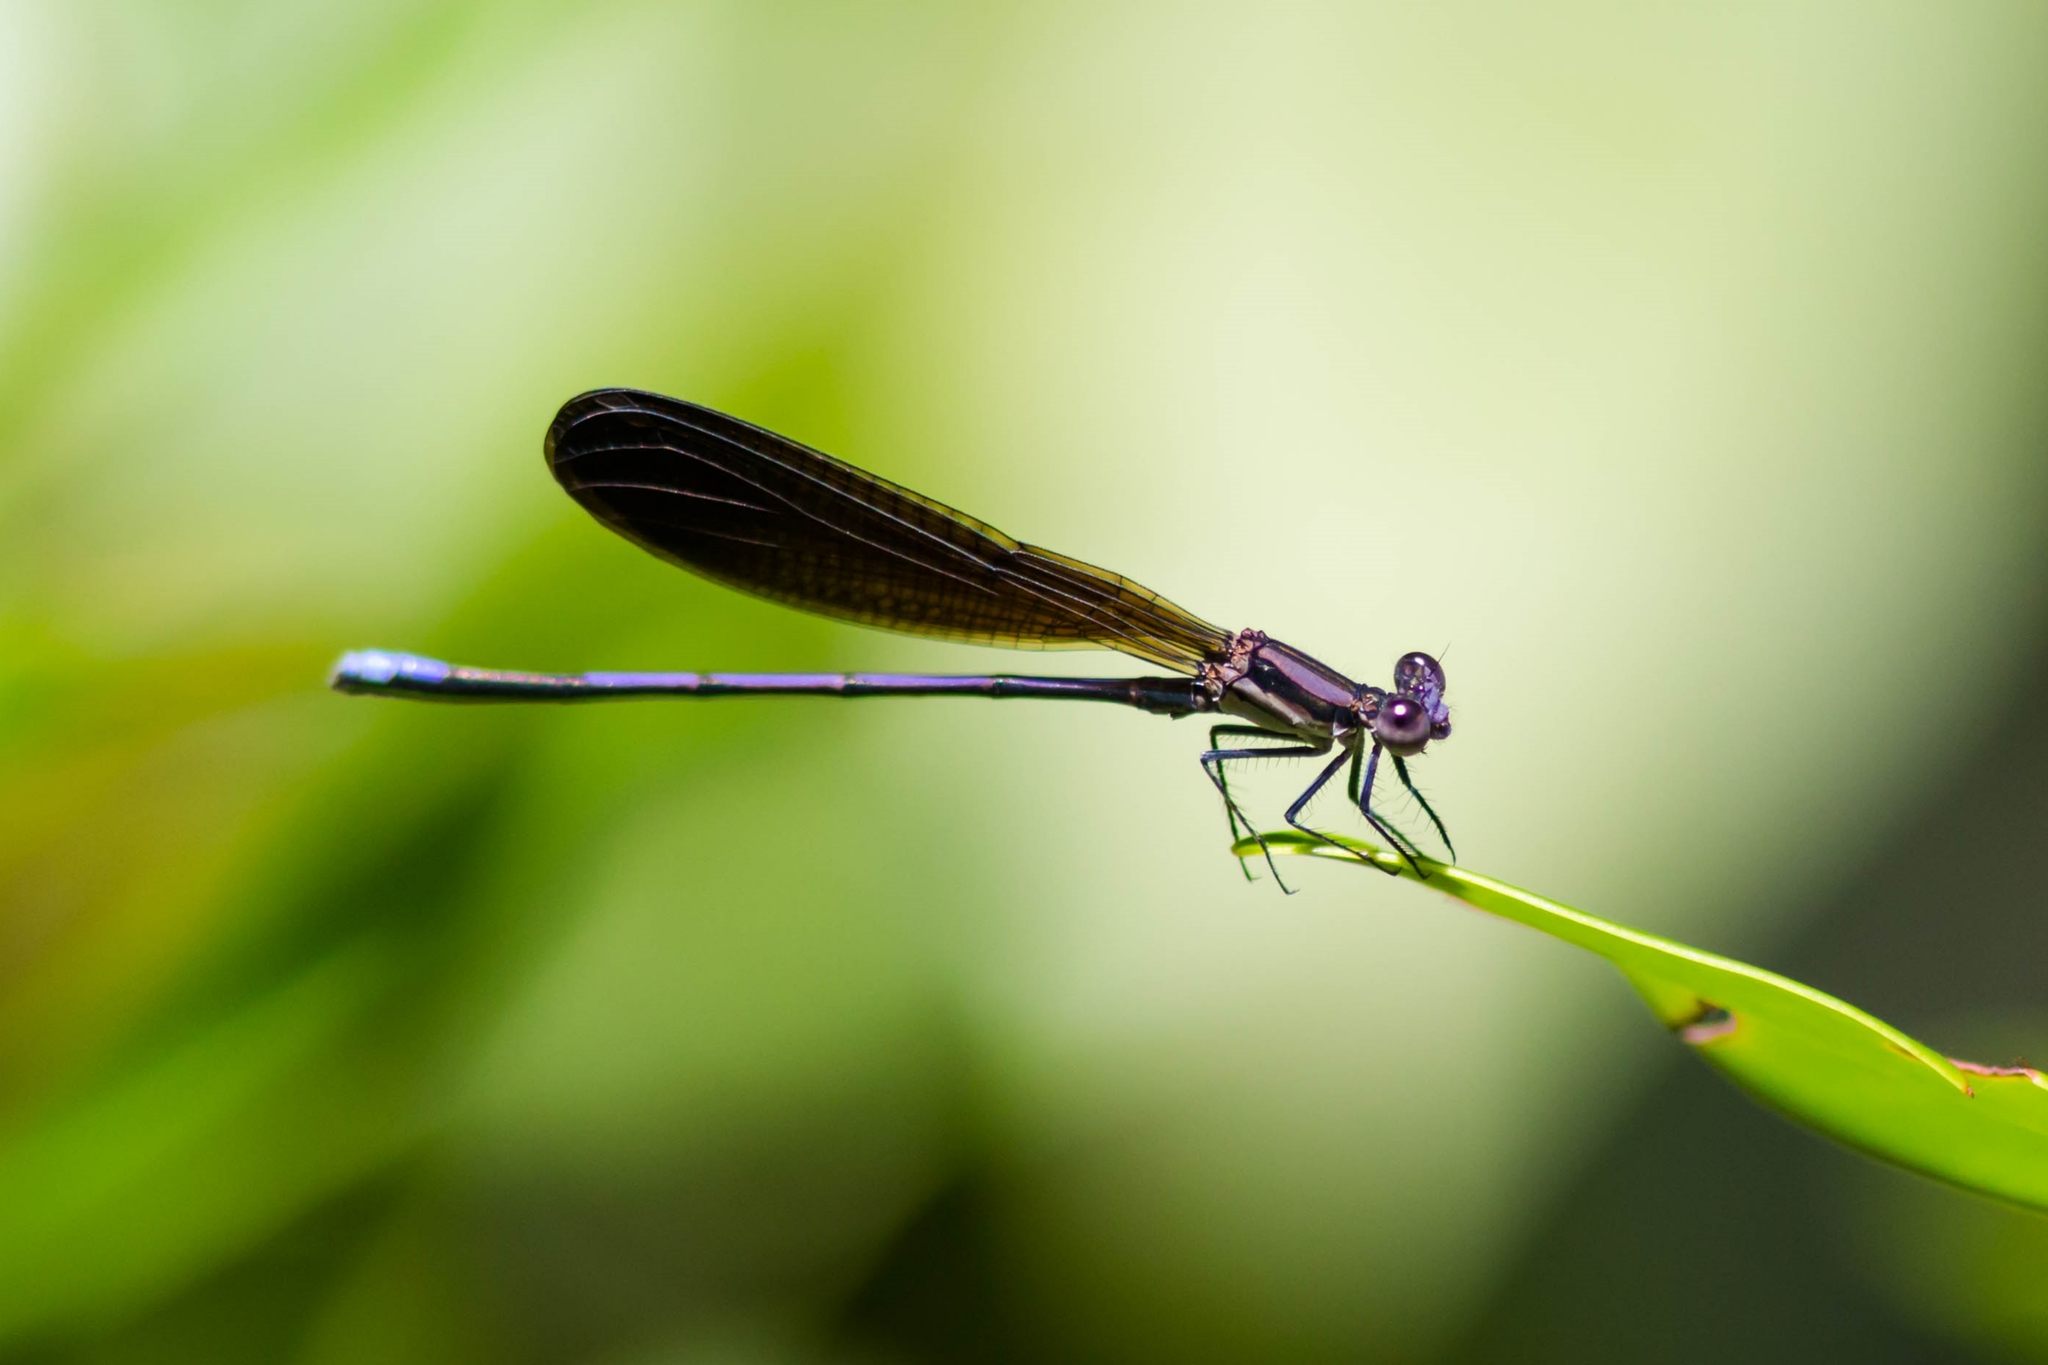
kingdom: Animalia
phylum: Arthropoda
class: Insecta
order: Odonata
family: Coenagrionidae
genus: Argia
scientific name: Argia fumipennis
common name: Variable dancer
